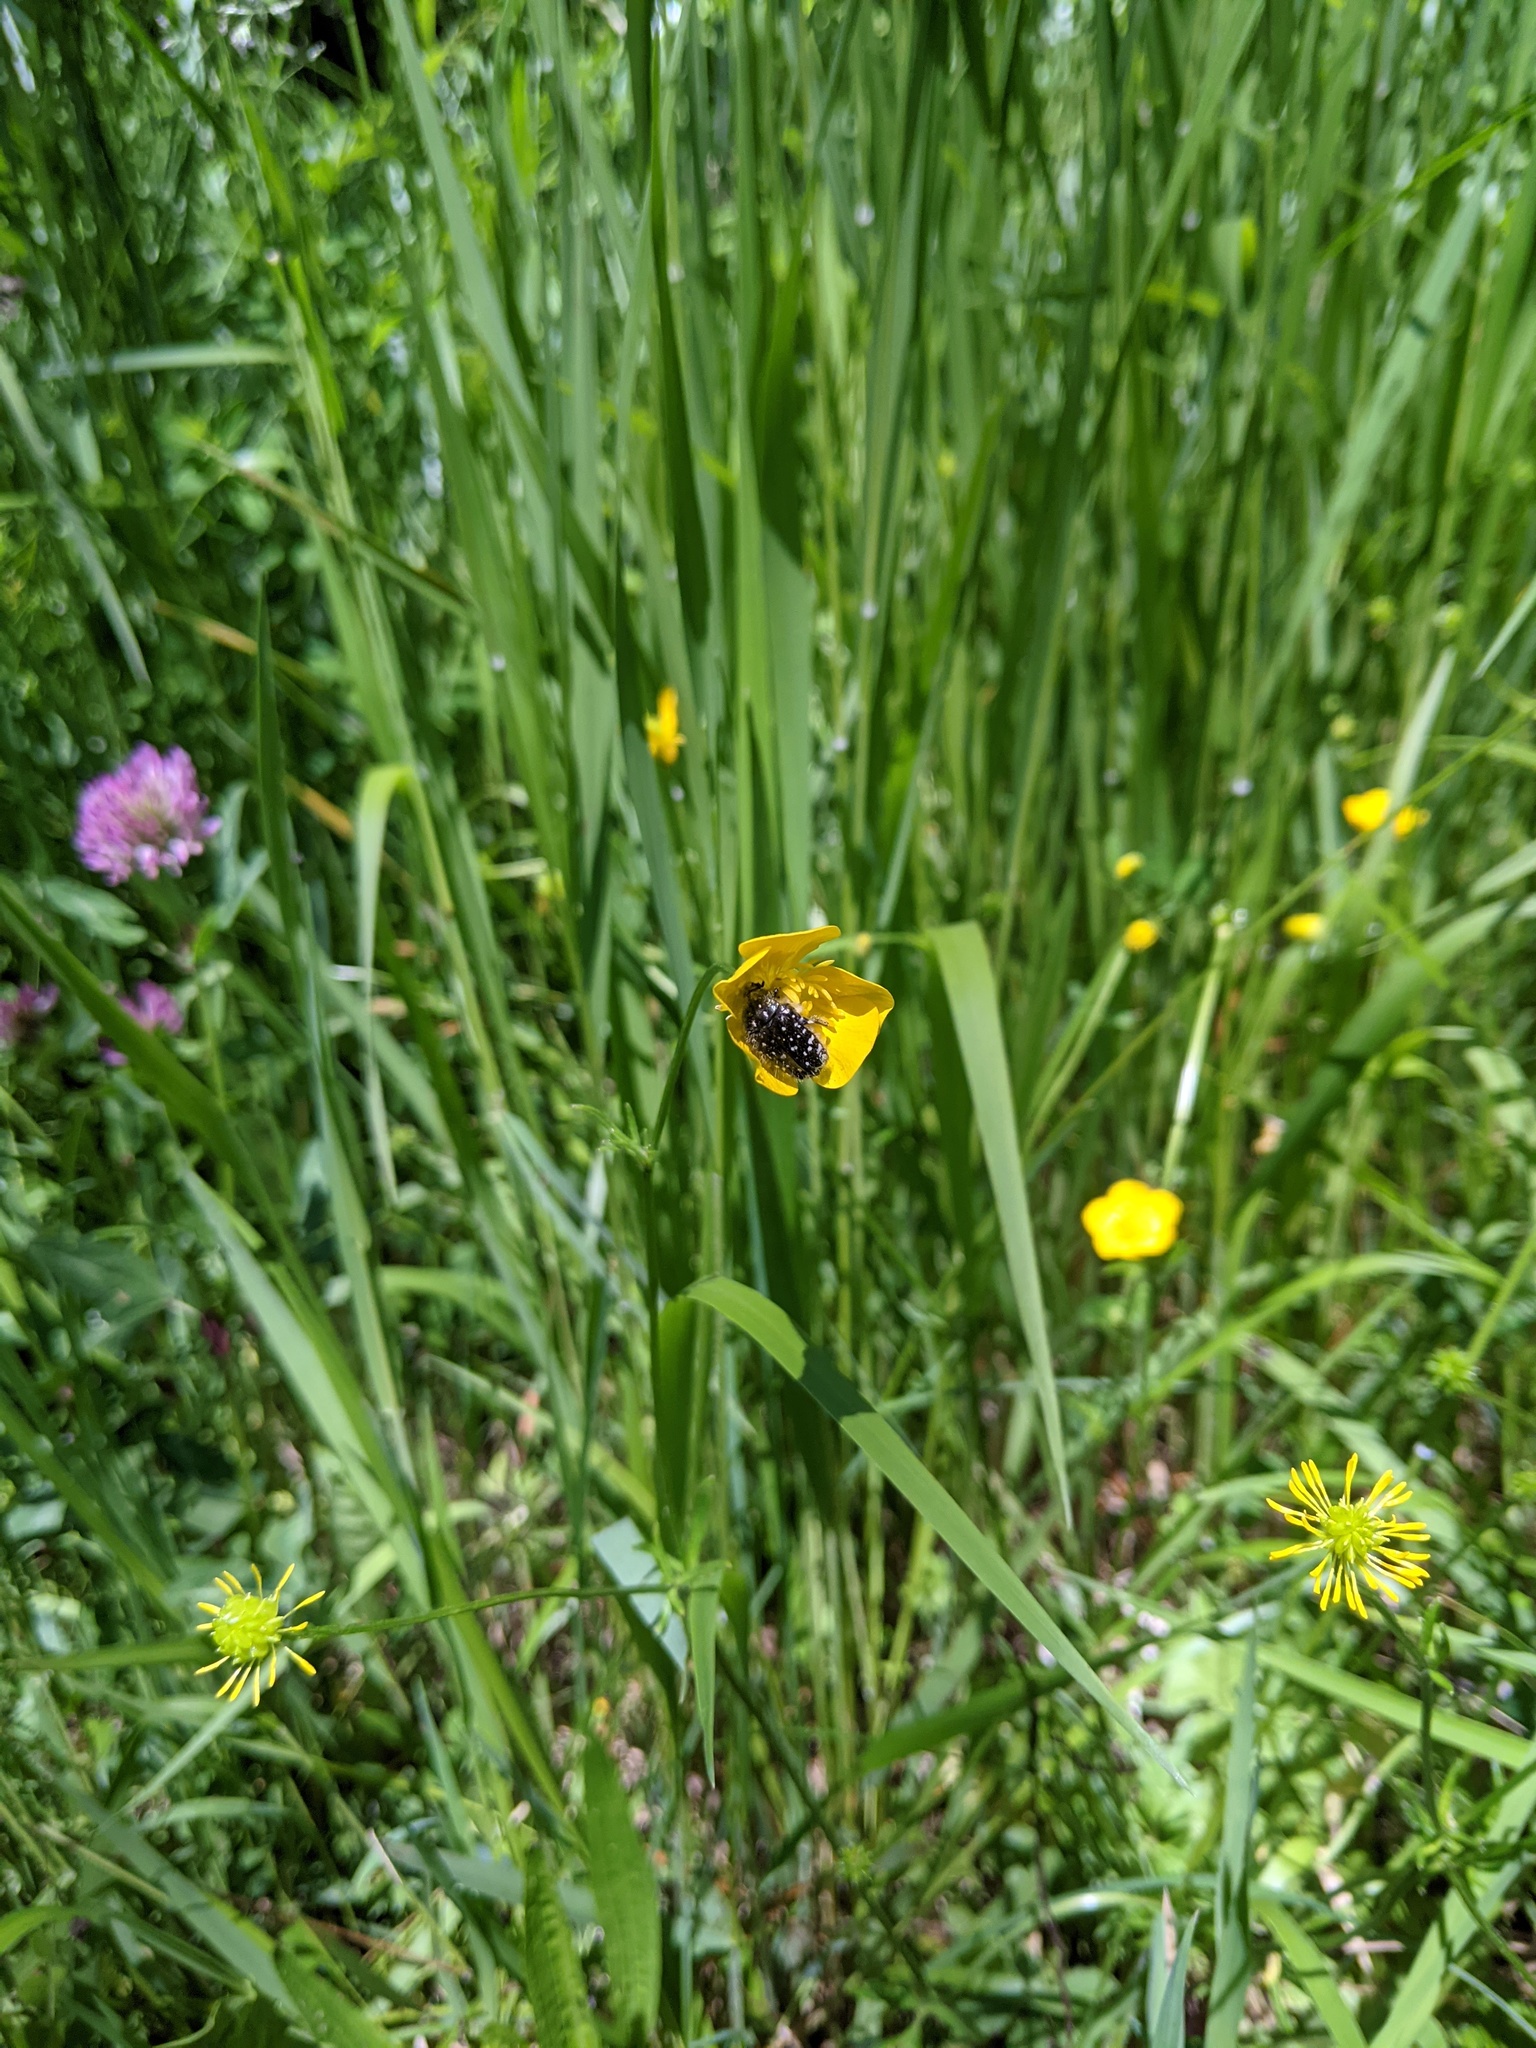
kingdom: Animalia
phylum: Arthropoda
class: Insecta
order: Coleoptera
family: Scarabaeidae
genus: Oxythyrea
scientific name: Oxythyrea funesta
